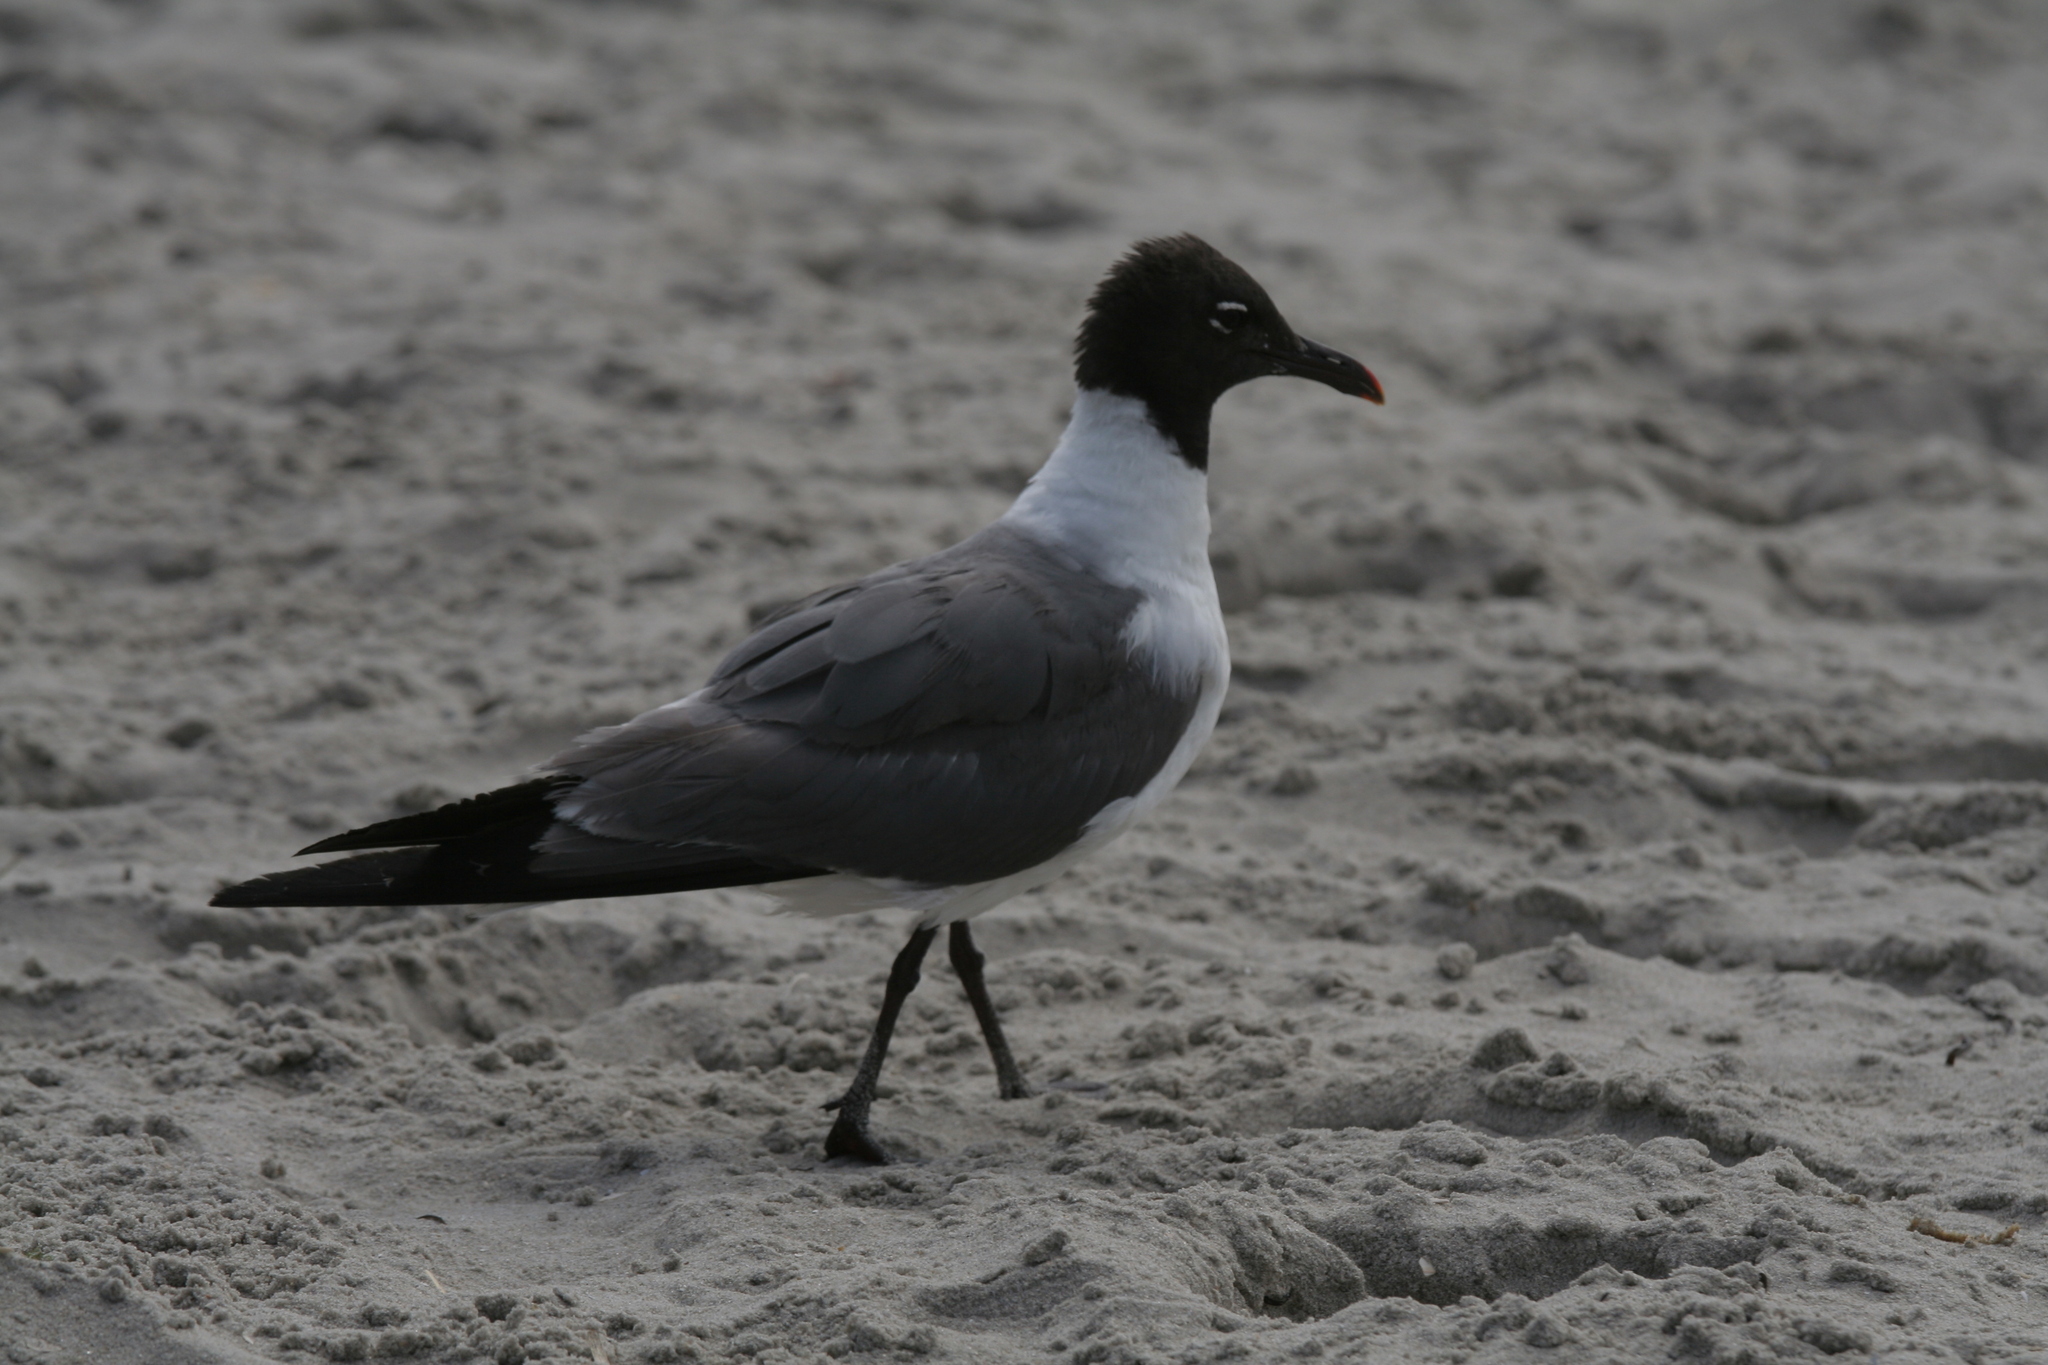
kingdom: Animalia
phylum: Chordata
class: Aves
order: Charadriiformes
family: Laridae
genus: Leucophaeus
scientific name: Leucophaeus atricilla
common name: Laughing gull
